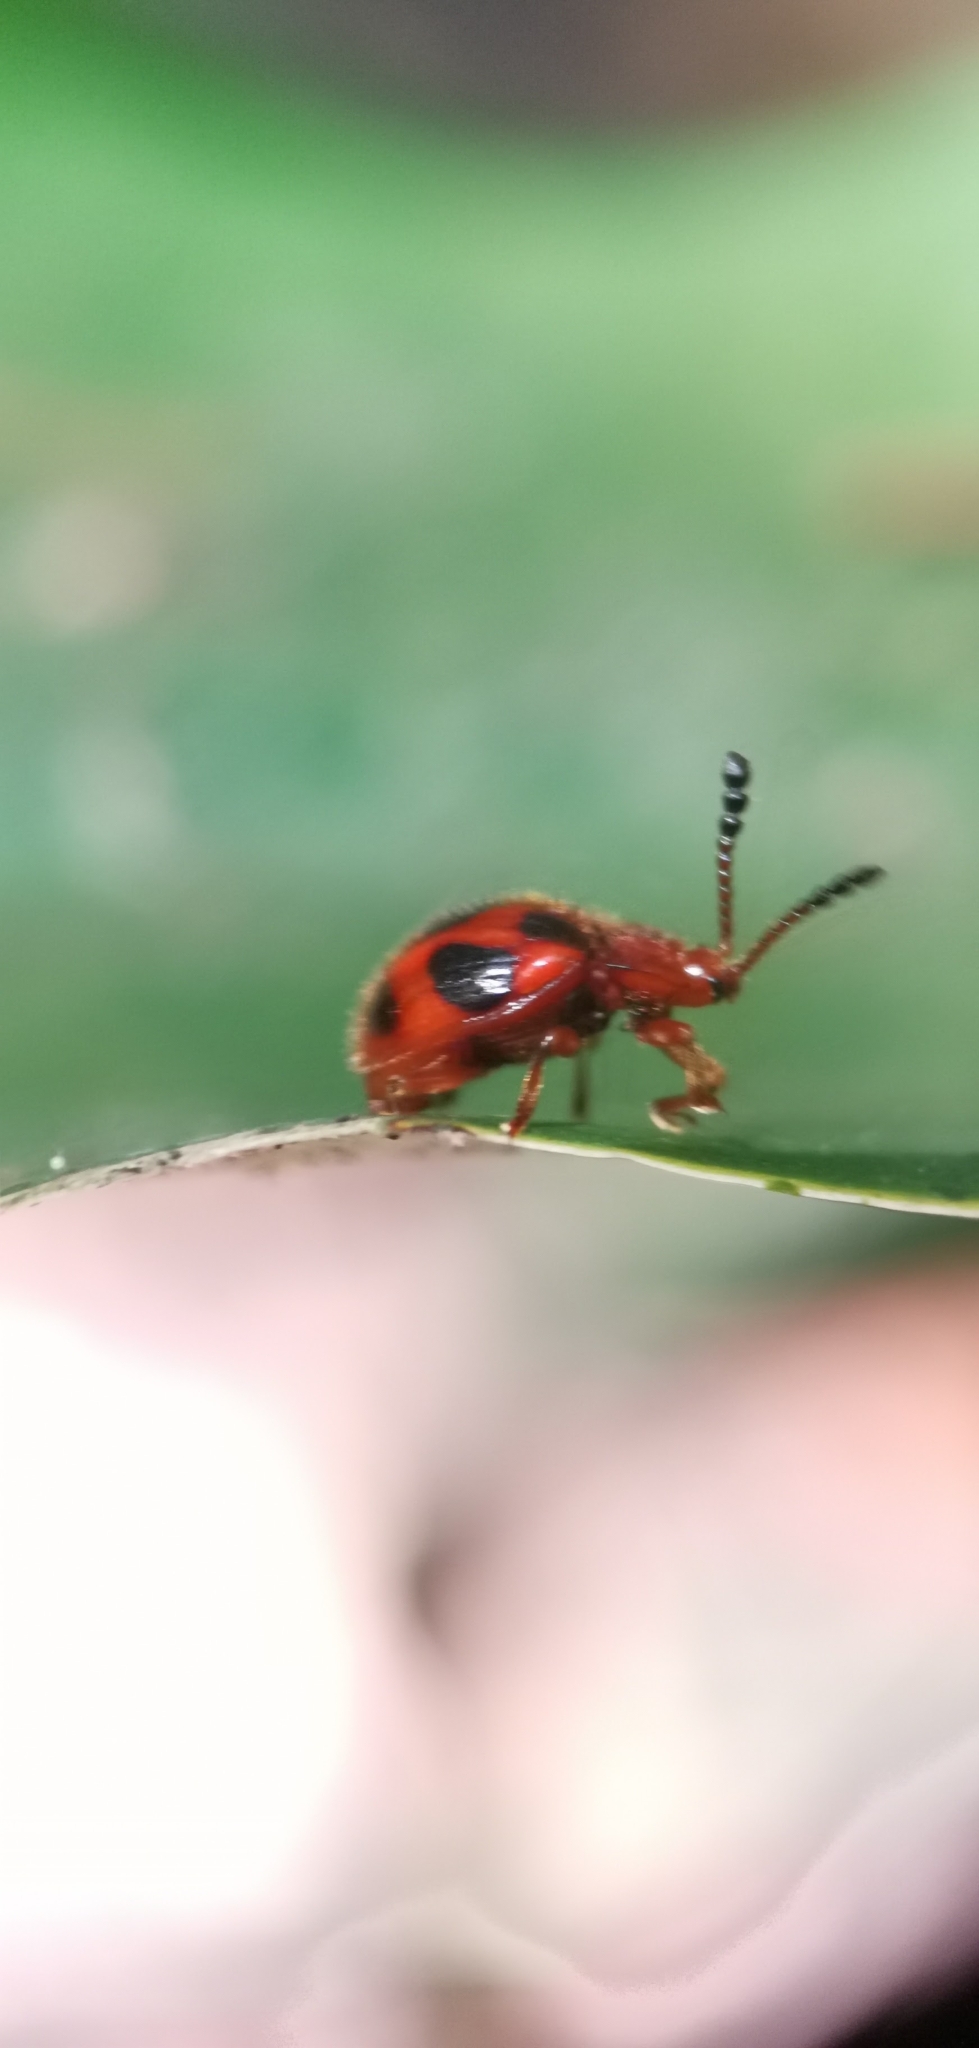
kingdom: Animalia
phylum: Arthropoda
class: Insecta
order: Coleoptera
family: Endomychidae
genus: Stenotarsus
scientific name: Stenotarsus
